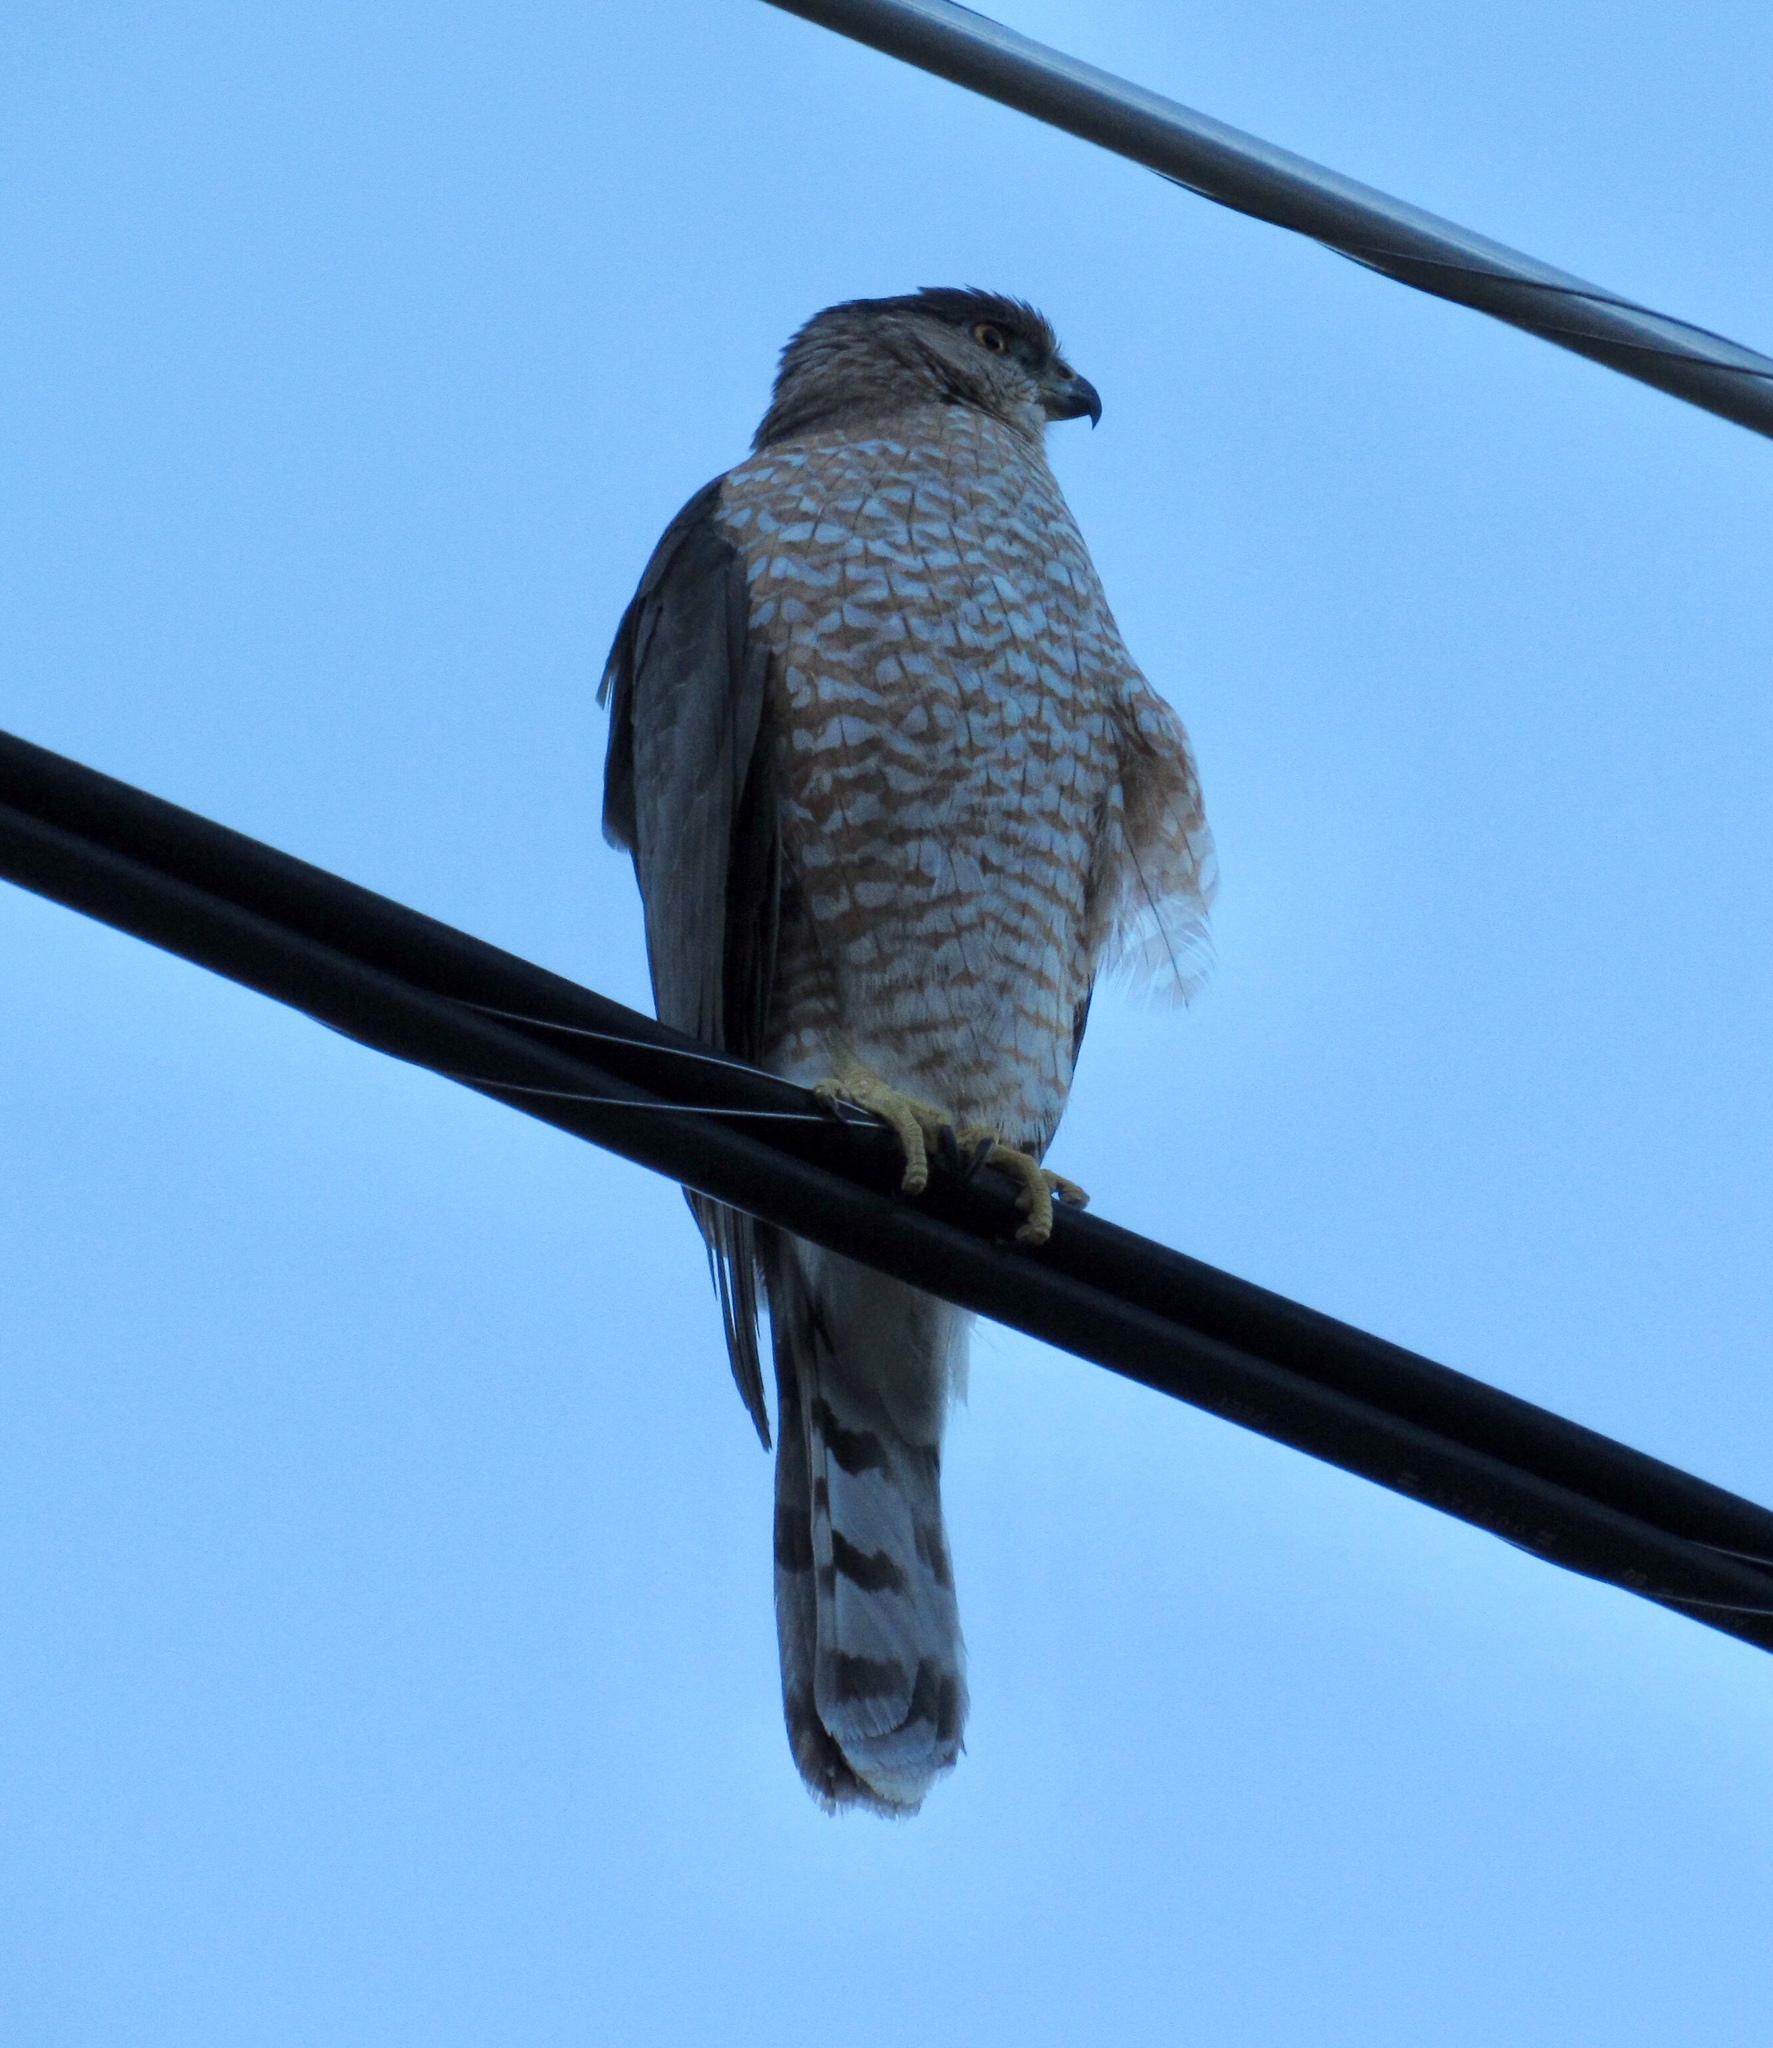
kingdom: Animalia
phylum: Chordata
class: Aves
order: Accipitriformes
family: Accipitridae
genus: Accipiter
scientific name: Accipiter cooperii
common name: Cooper's hawk
